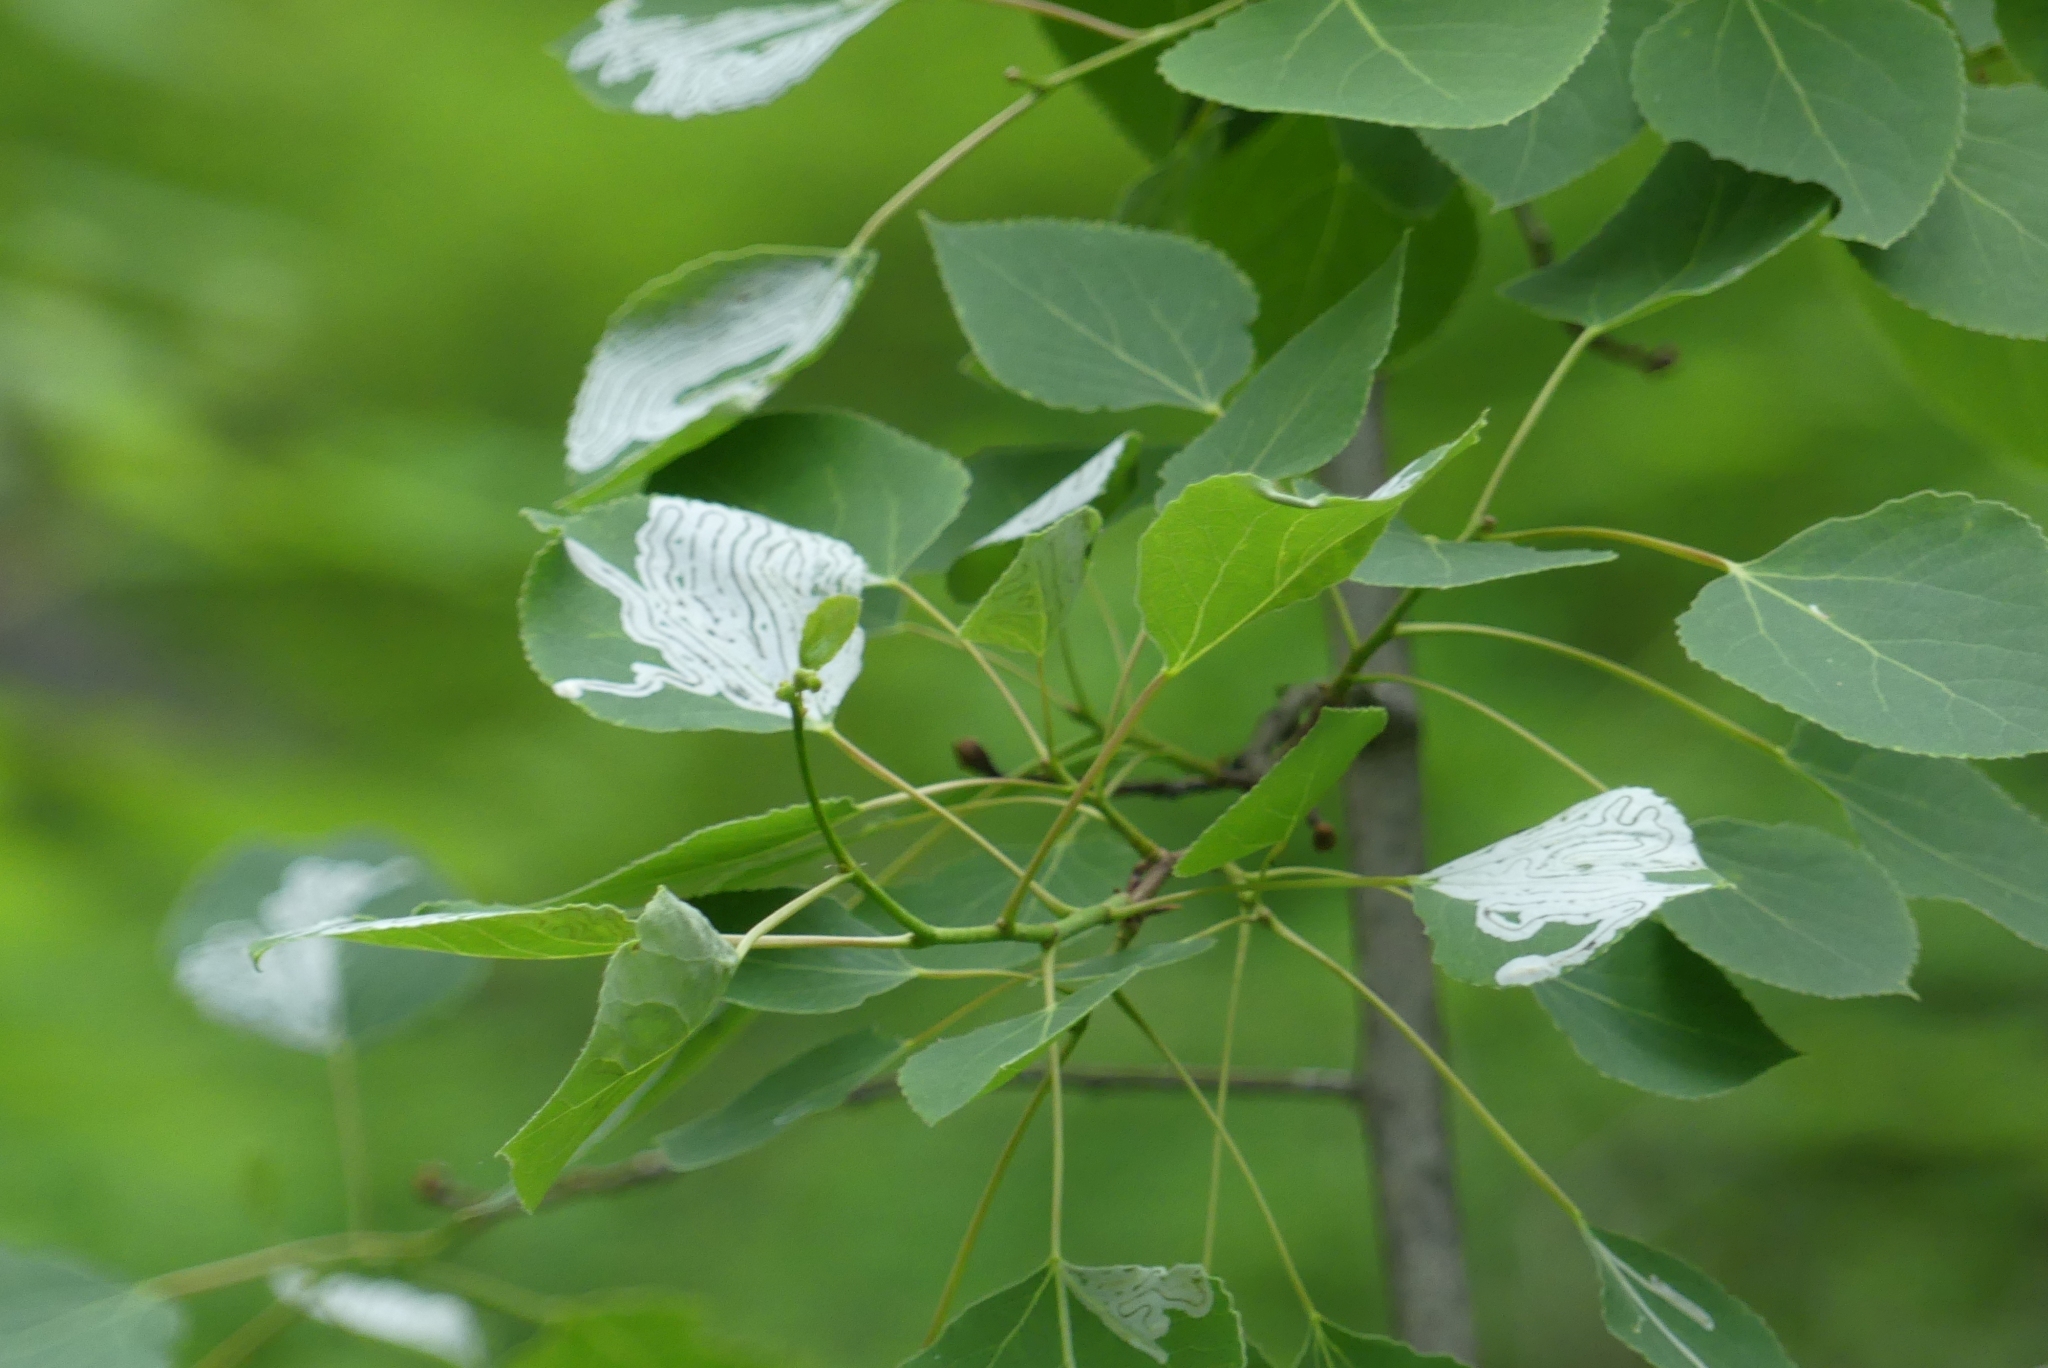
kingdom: Plantae
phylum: Tracheophyta
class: Magnoliopsida
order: Malpighiales
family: Salicaceae
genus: Populus
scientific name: Populus tremuloides
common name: Quaking aspen
